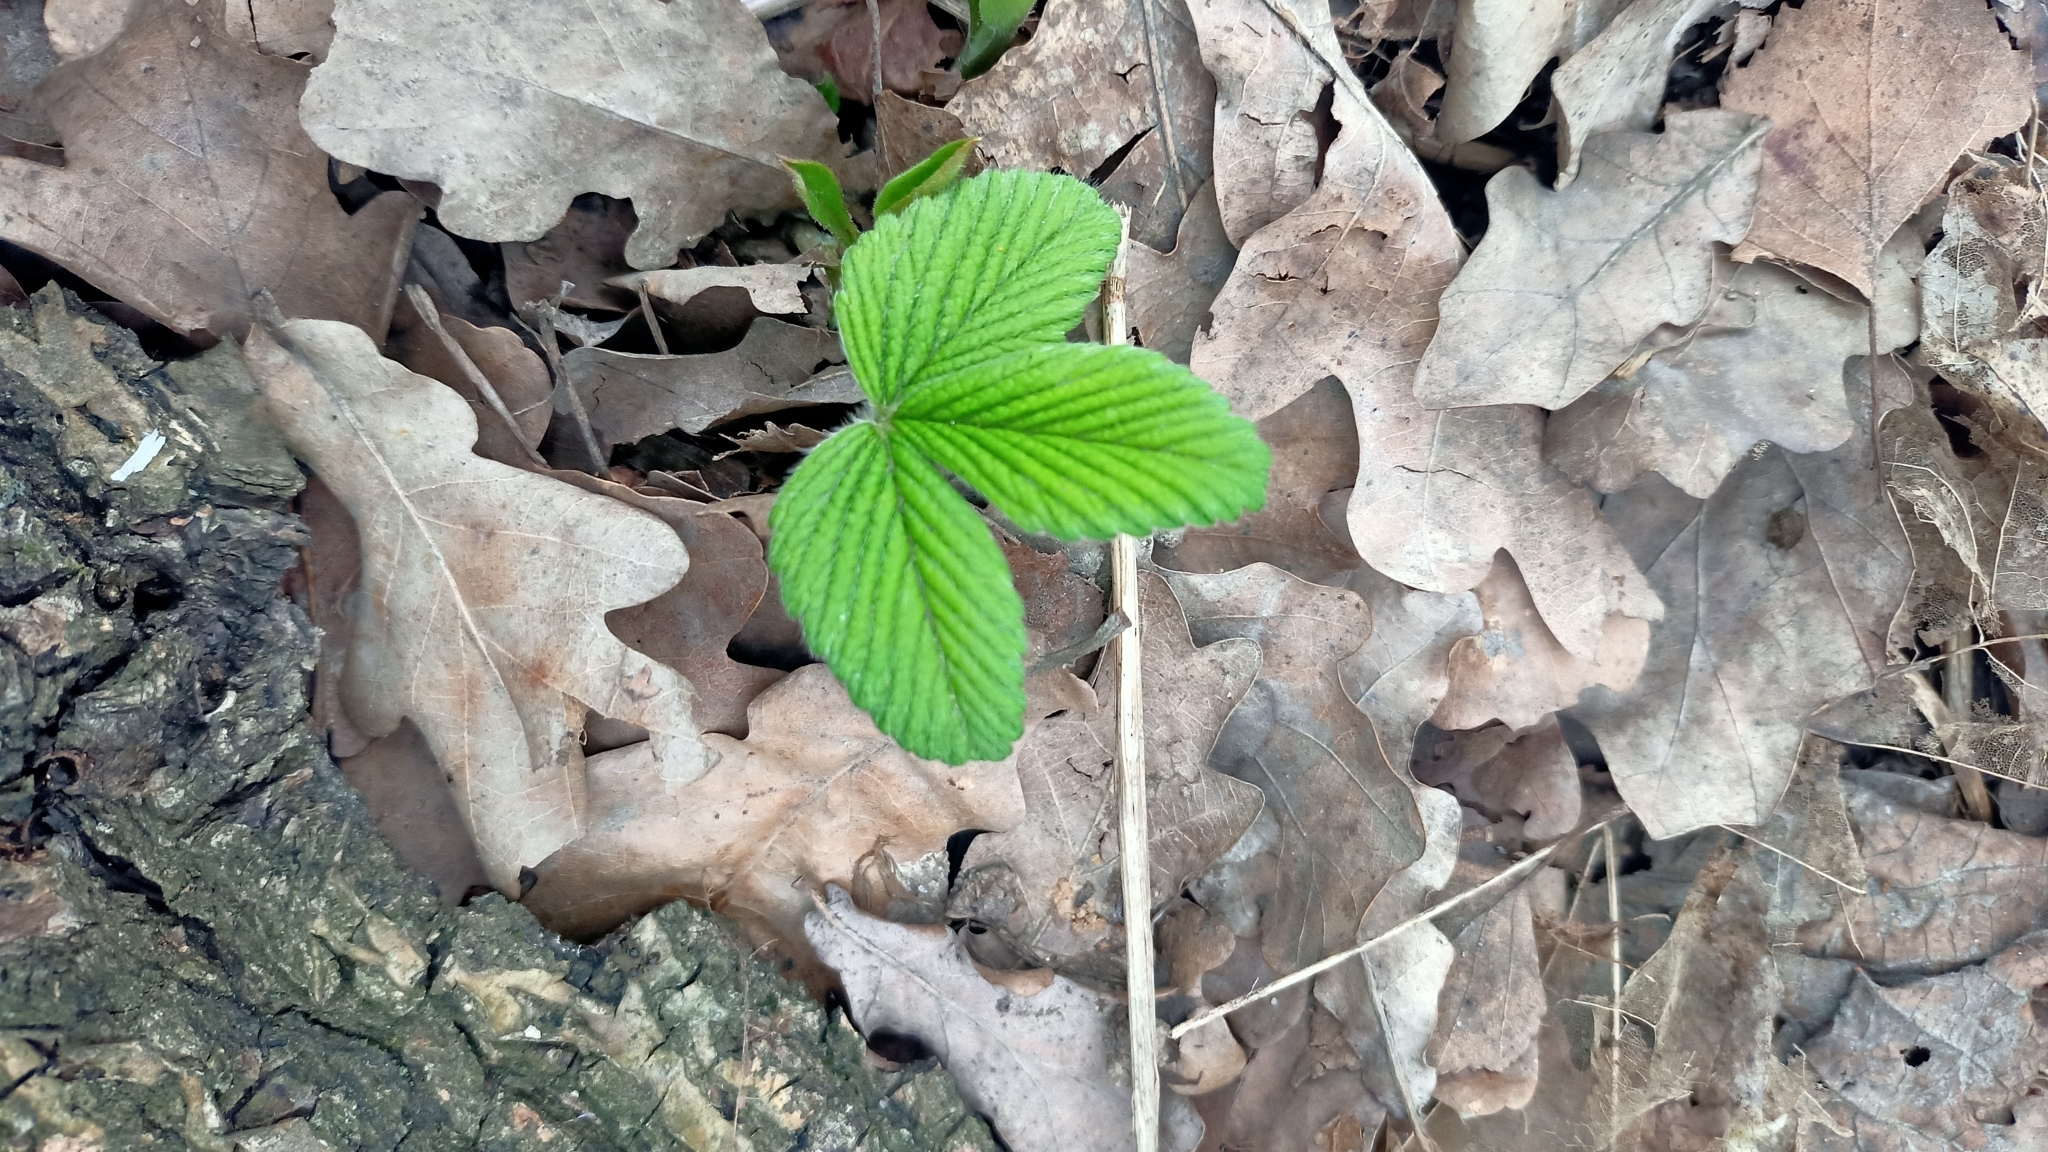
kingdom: Plantae
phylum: Tracheophyta
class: Magnoliopsida
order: Rosales
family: Rosaceae
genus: Fragaria
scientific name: Fragaria moschata
